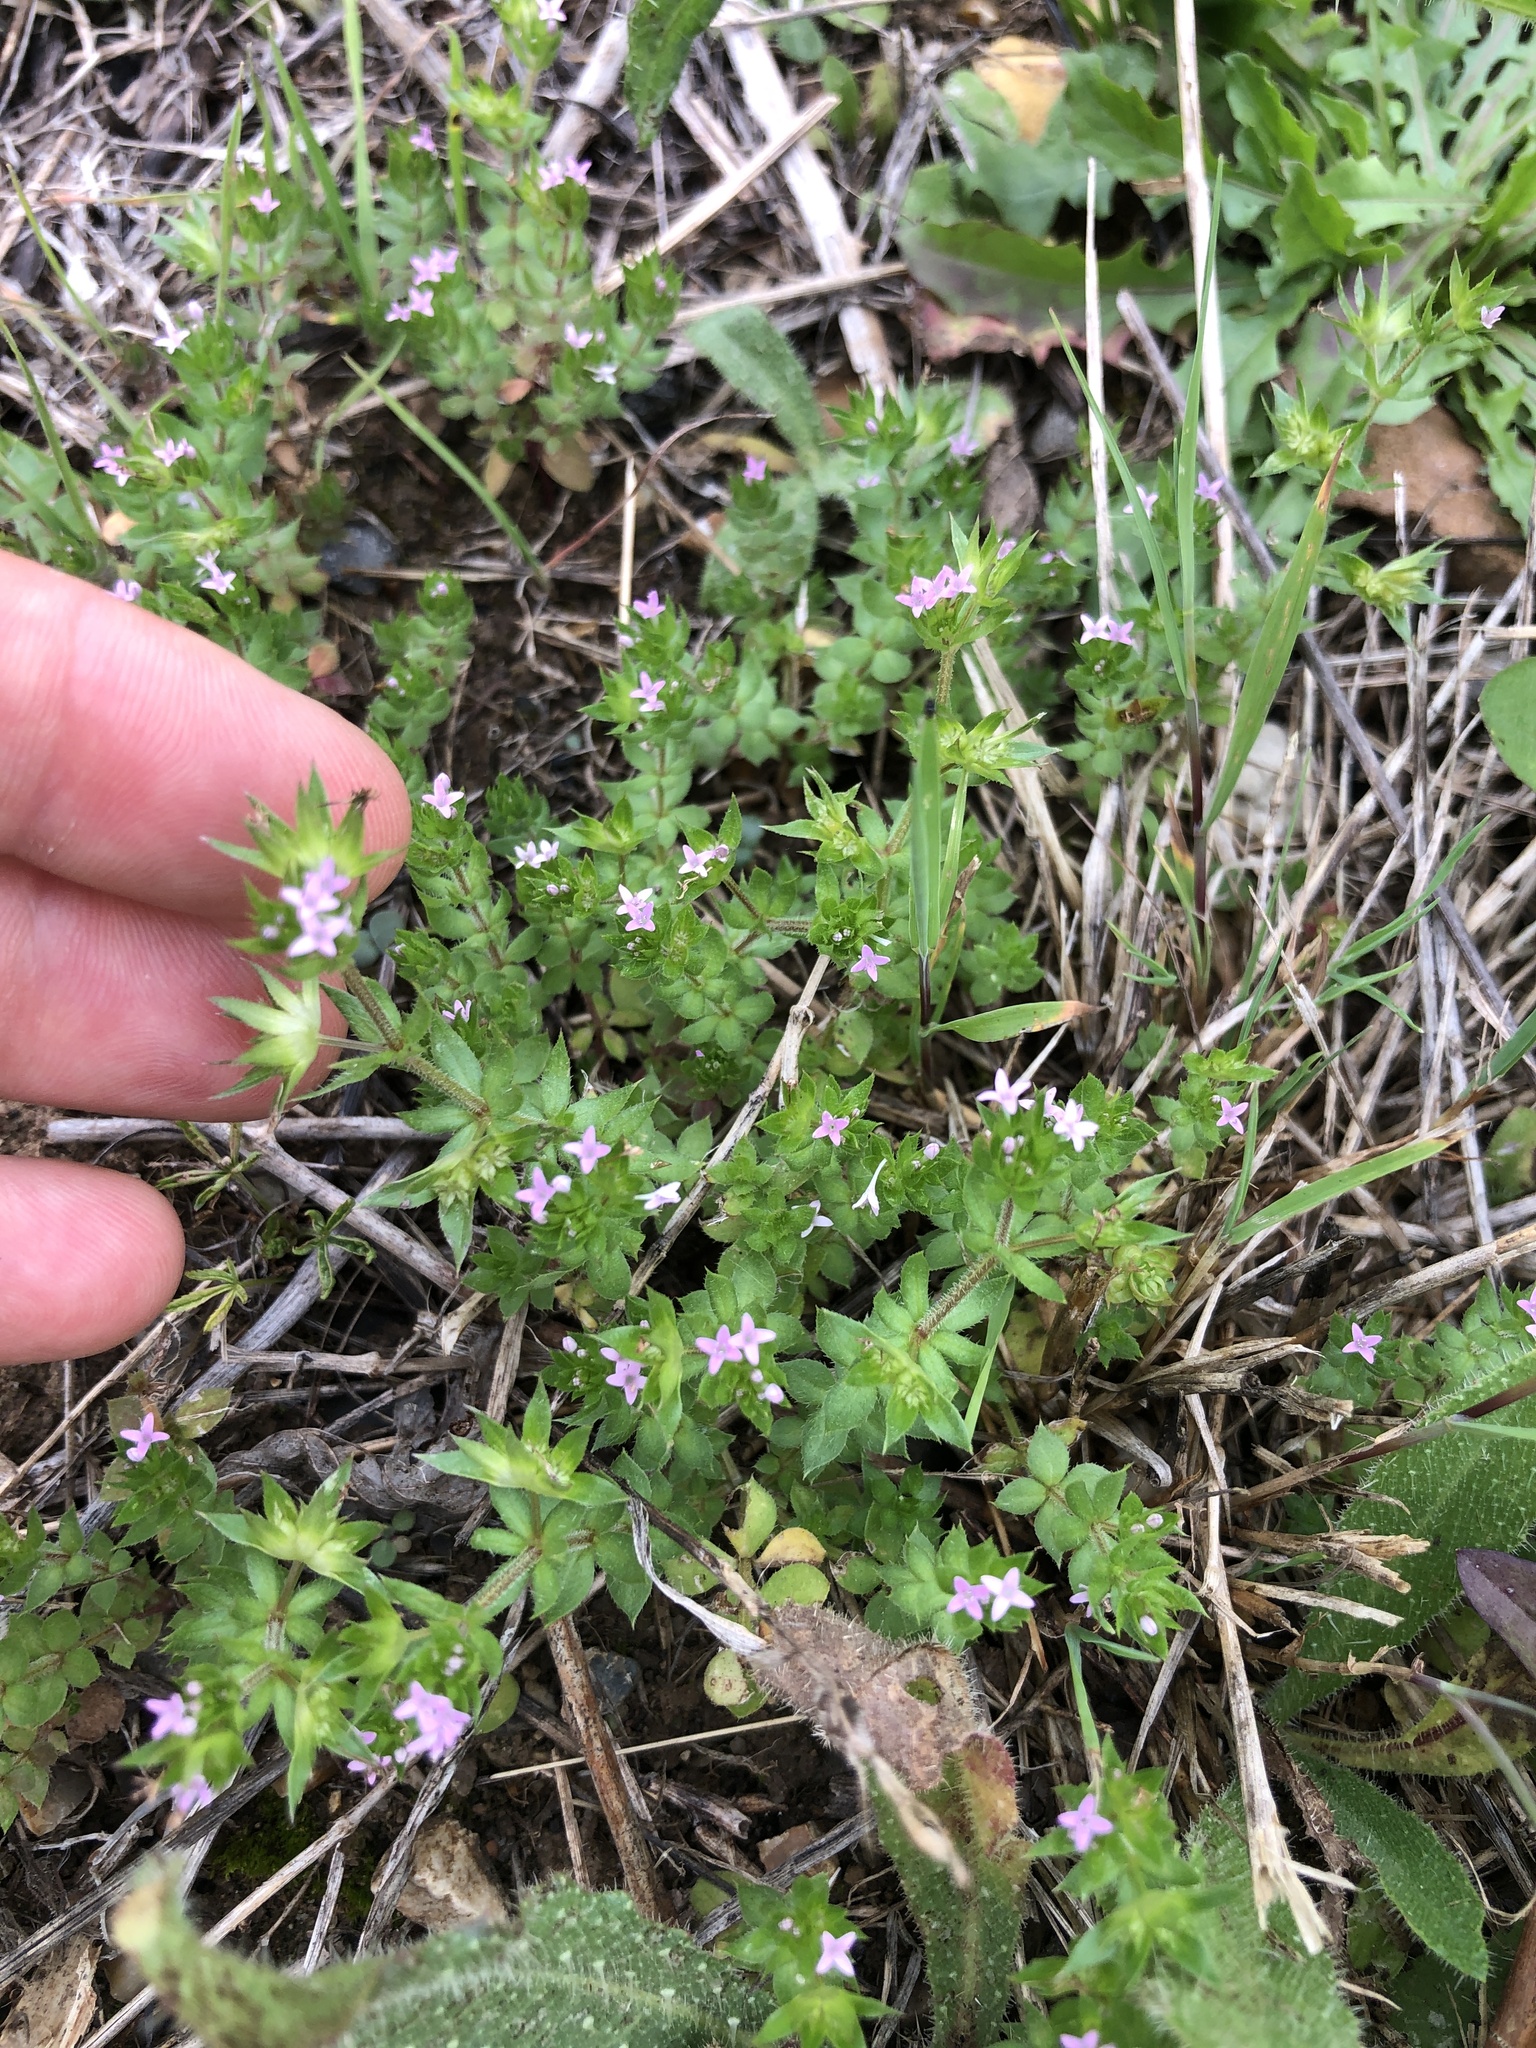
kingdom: Plantae
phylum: Tracheophyta
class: Magnoliopsida
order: Gentianales
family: Rubiaceae
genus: Sherardia
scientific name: Sherardia arvensis
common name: Field madder
